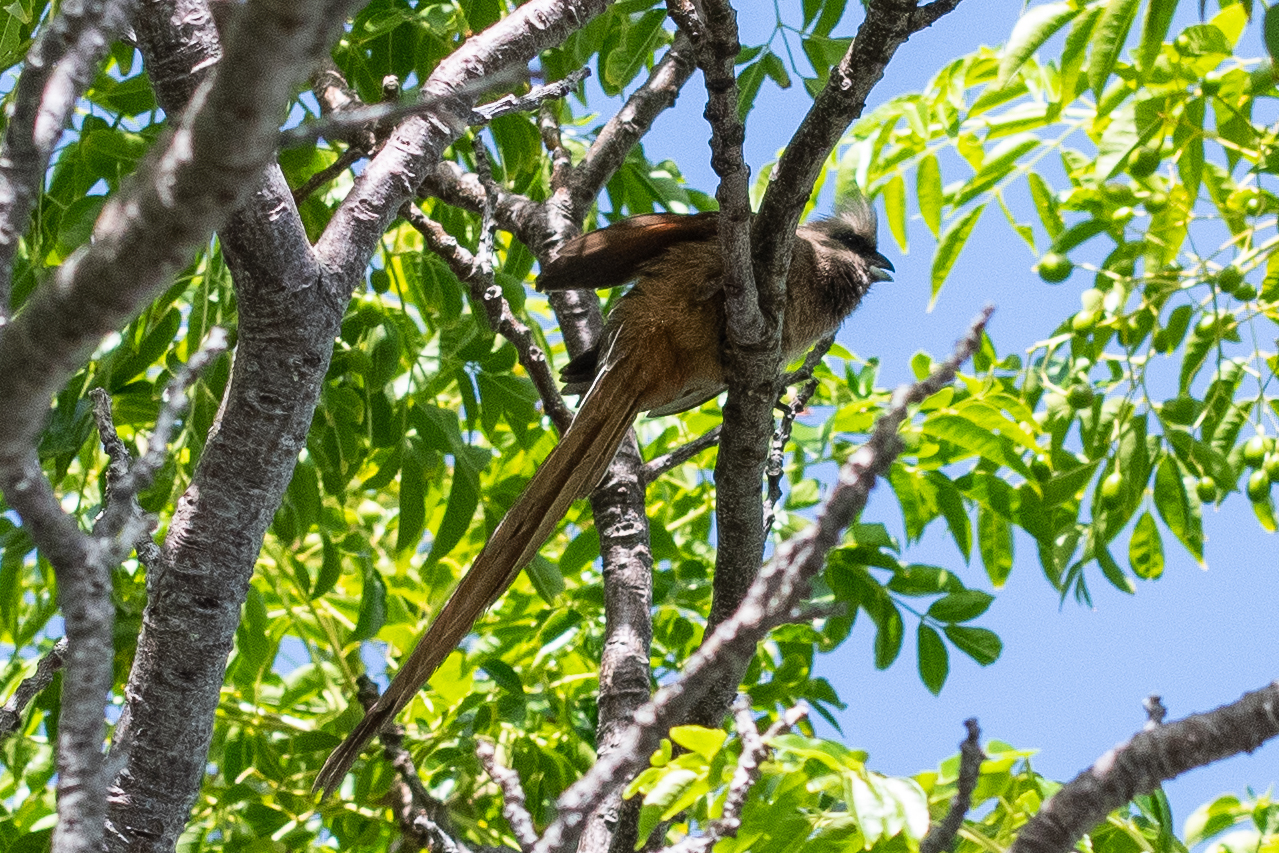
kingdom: Animalia
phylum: Chordata
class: Aves
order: Coliiformes
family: Coliidae
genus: Colius
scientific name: Colius striatus
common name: Speckled mousebird
